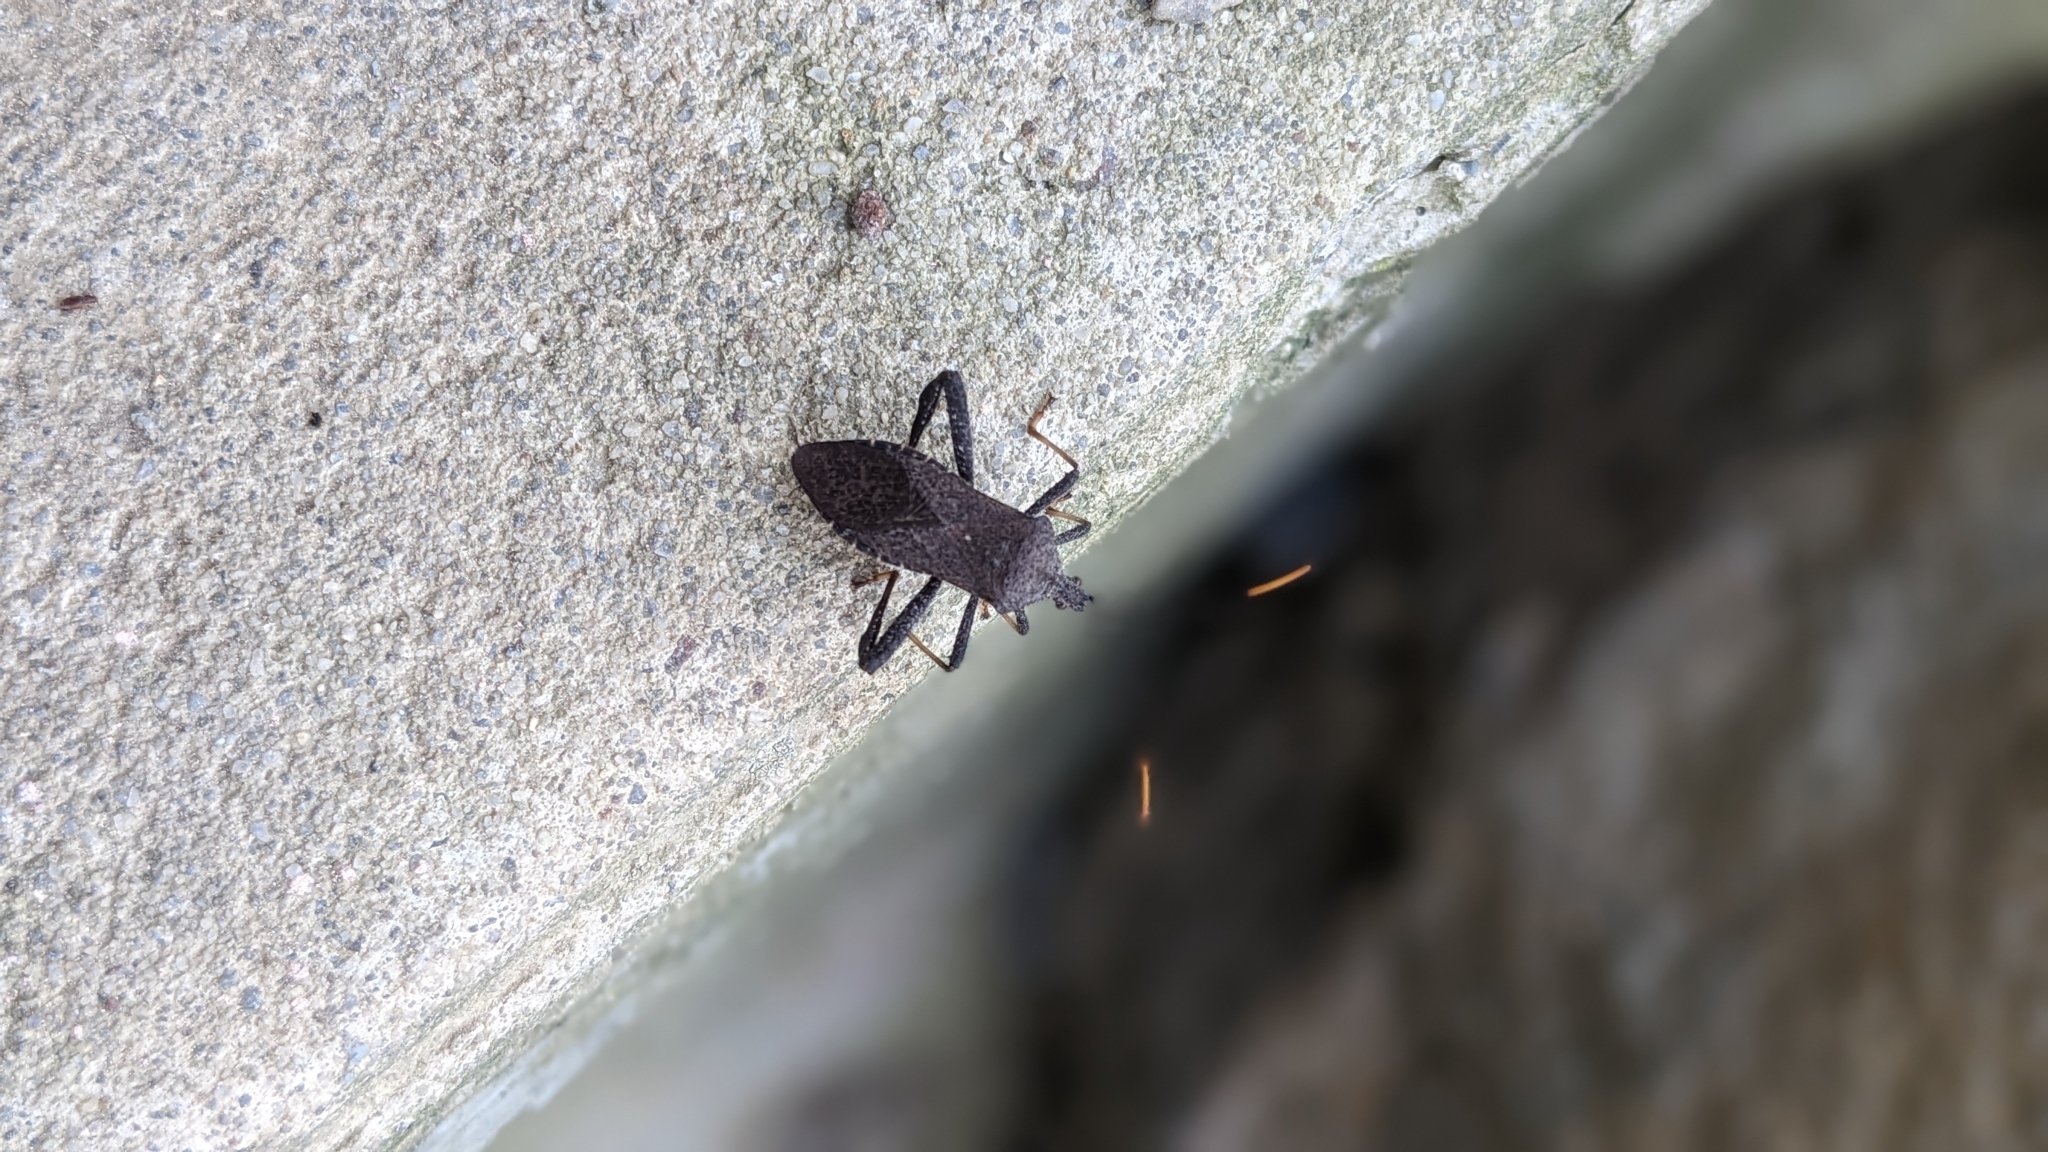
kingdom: Animalia
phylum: Arthropoda
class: Insecta
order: Hemiptera
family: Coreidae
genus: Acanthocephala
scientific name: Acanthocephala terminalis
